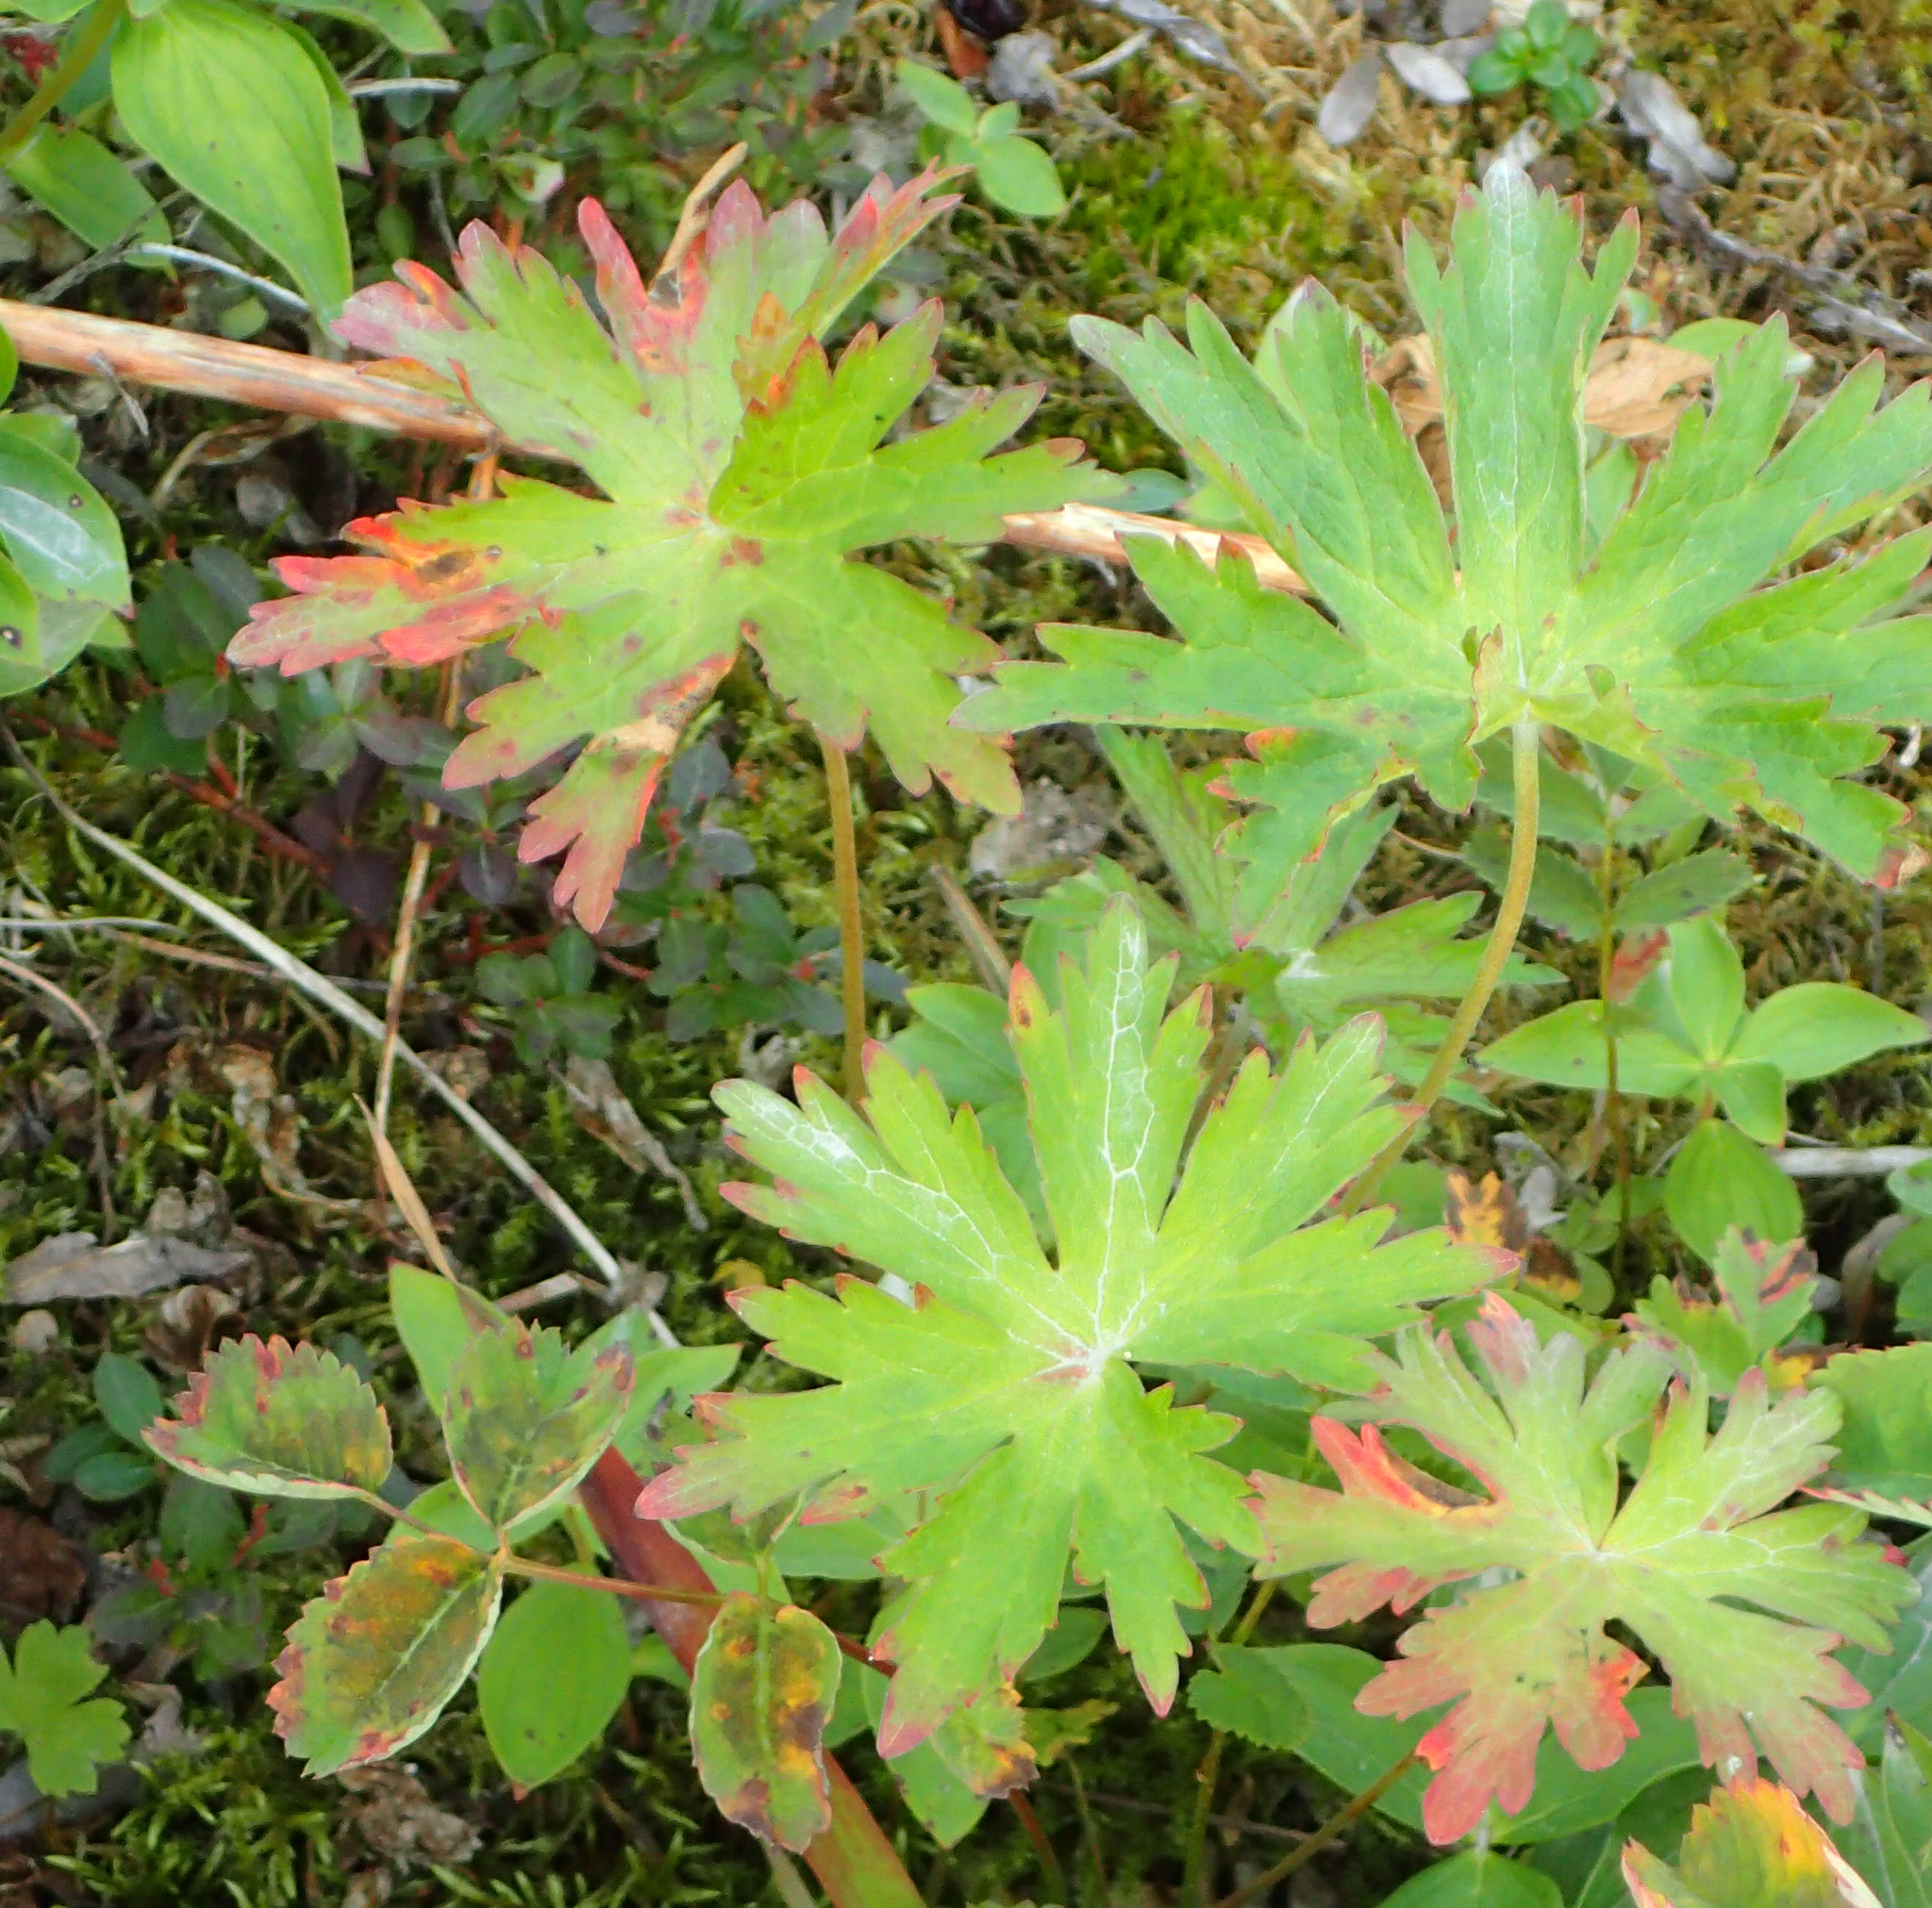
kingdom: Plantae
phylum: Tracheophyta
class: Magnoliopsida
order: Geraniales
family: Geraniaceae
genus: Geranium
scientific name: Geranium erianthum
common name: Northern crane's-bill
